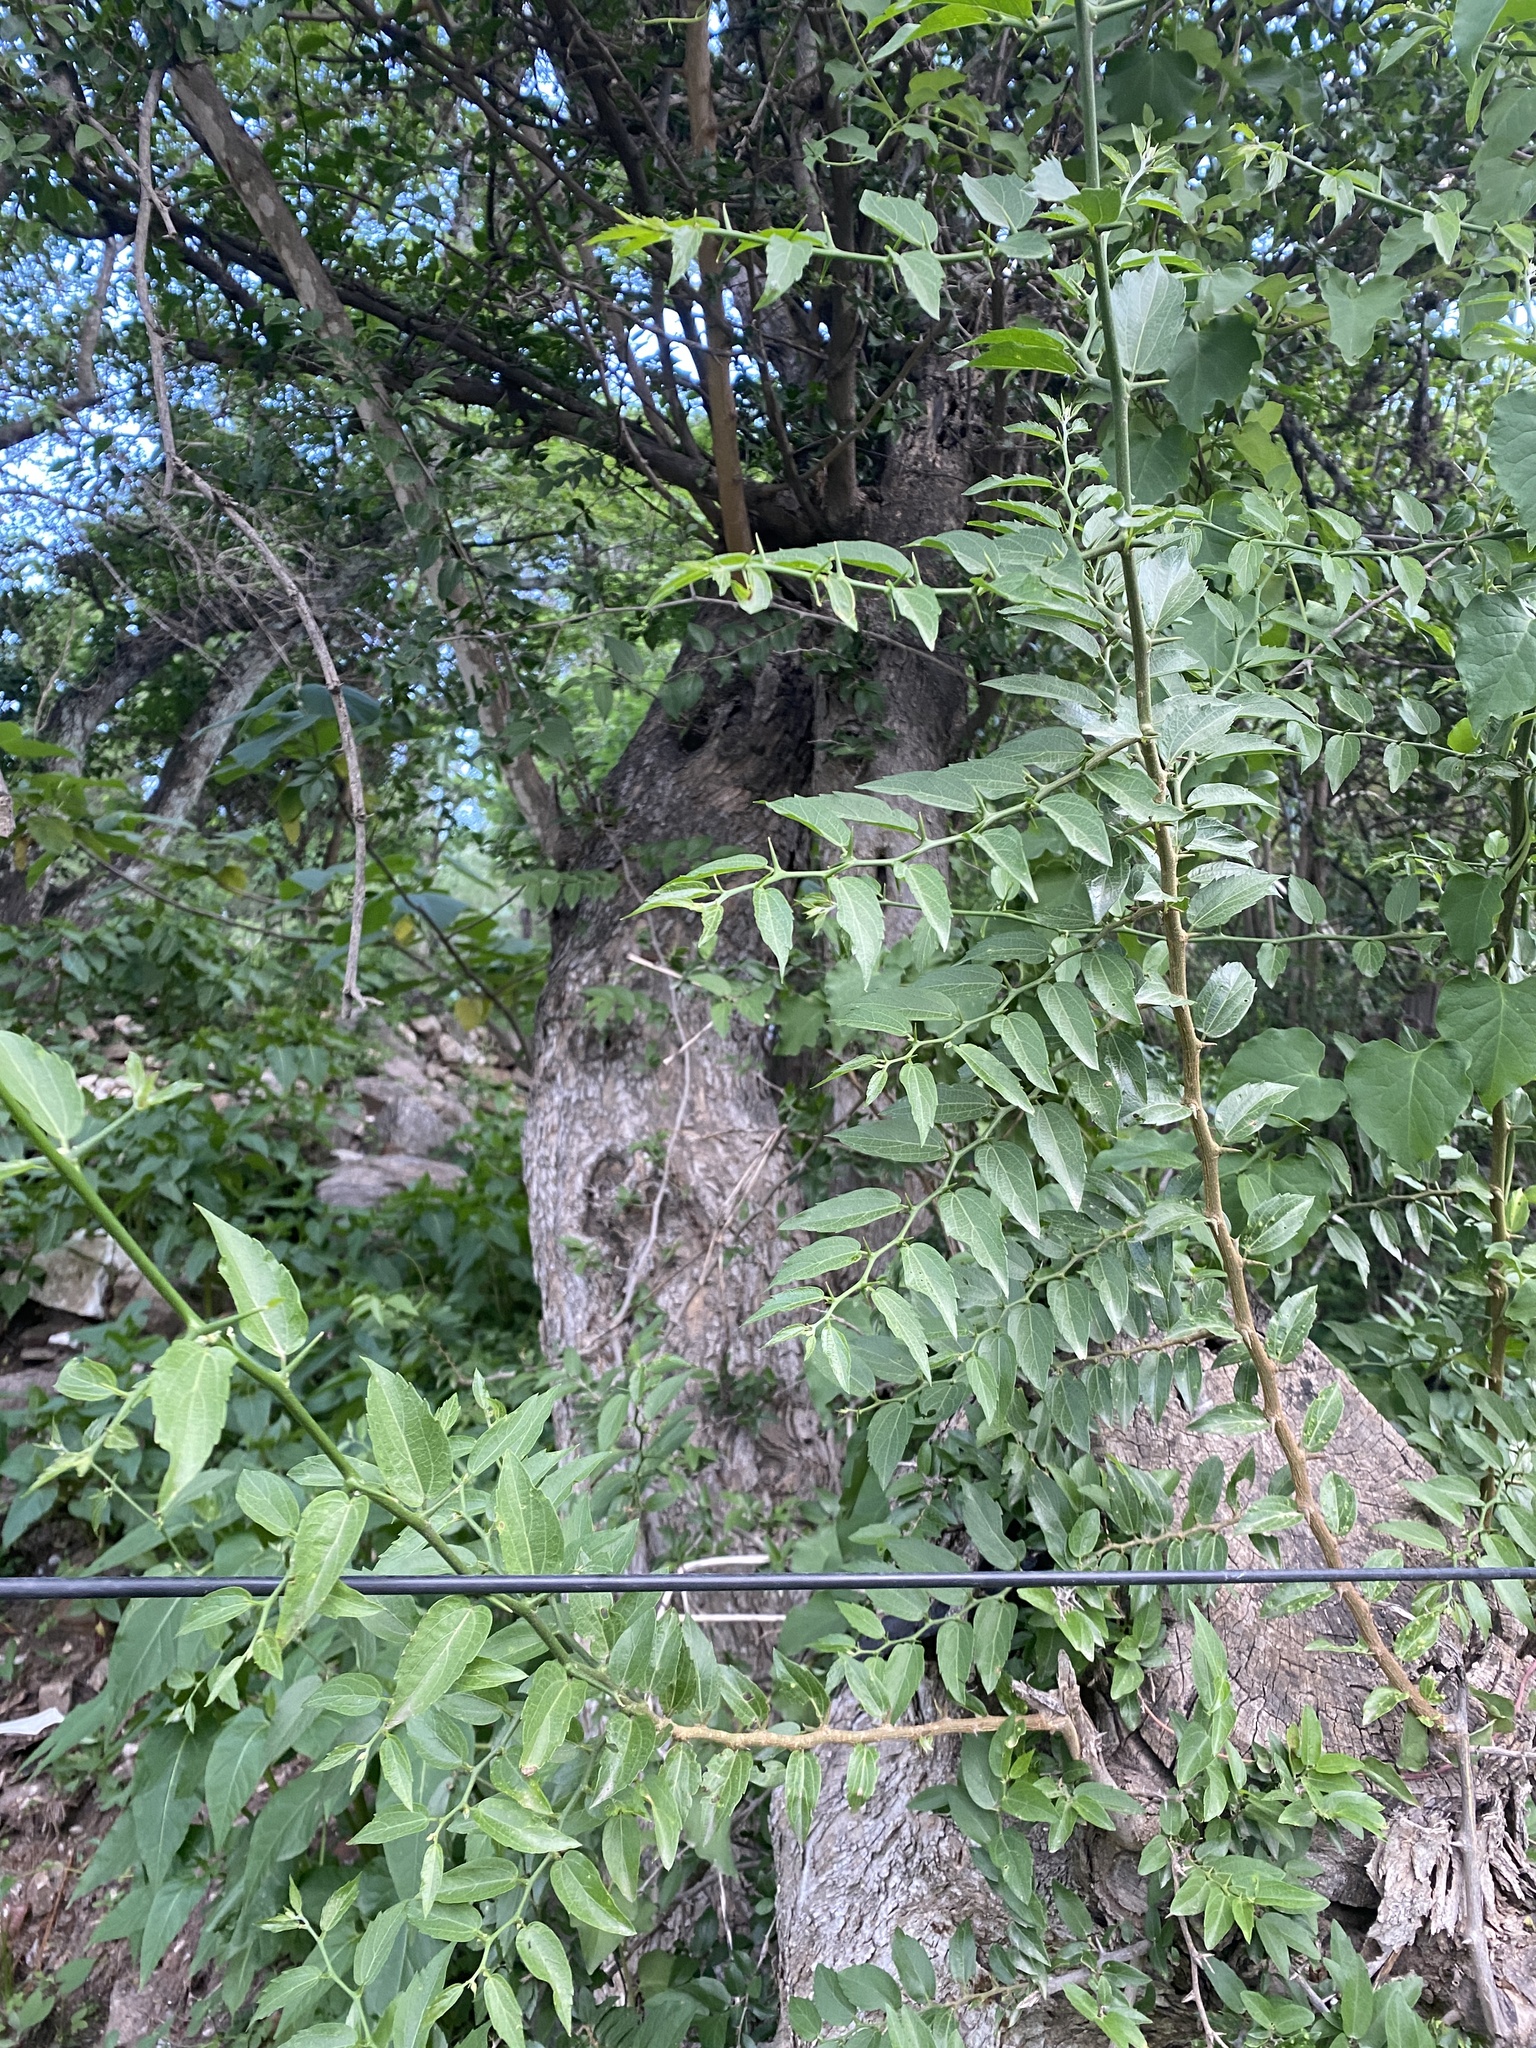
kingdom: Plantae
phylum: Tracheophyta
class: Magnoliopsida
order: Rosales
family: Cannabaceae
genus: Celtis
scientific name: Celtis tala
